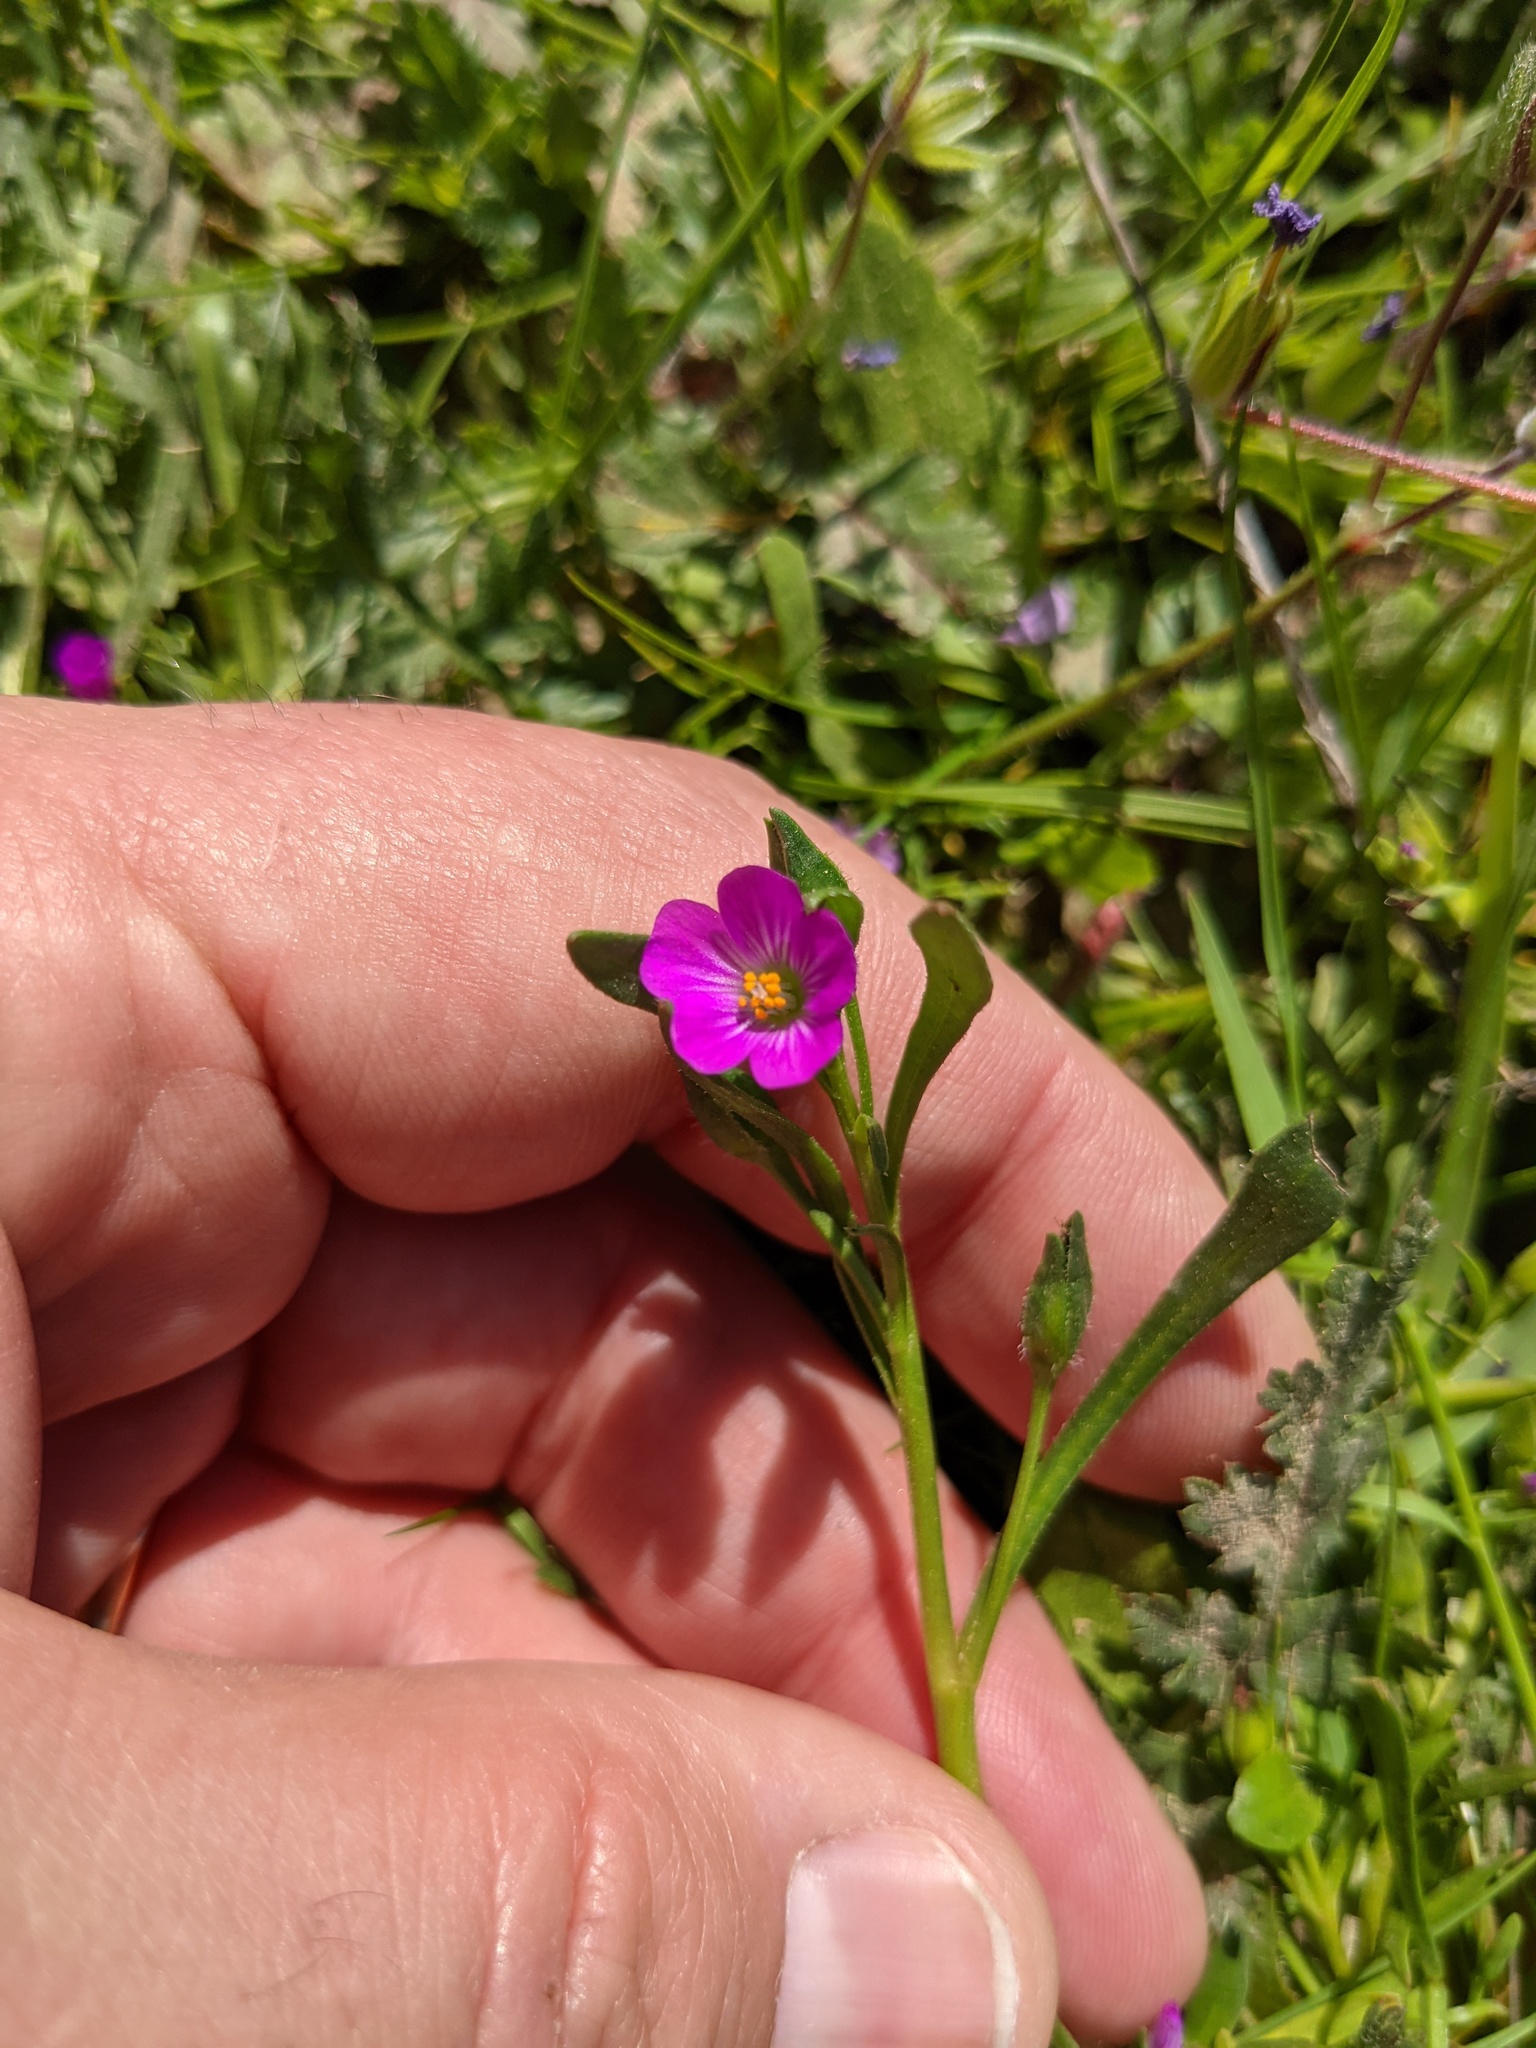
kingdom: Plantae
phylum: Tracheophyta
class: Magnoliopsida
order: Caryophyllales
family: Montiaceae
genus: Calandrinia
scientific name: Calandrinia menziesii
